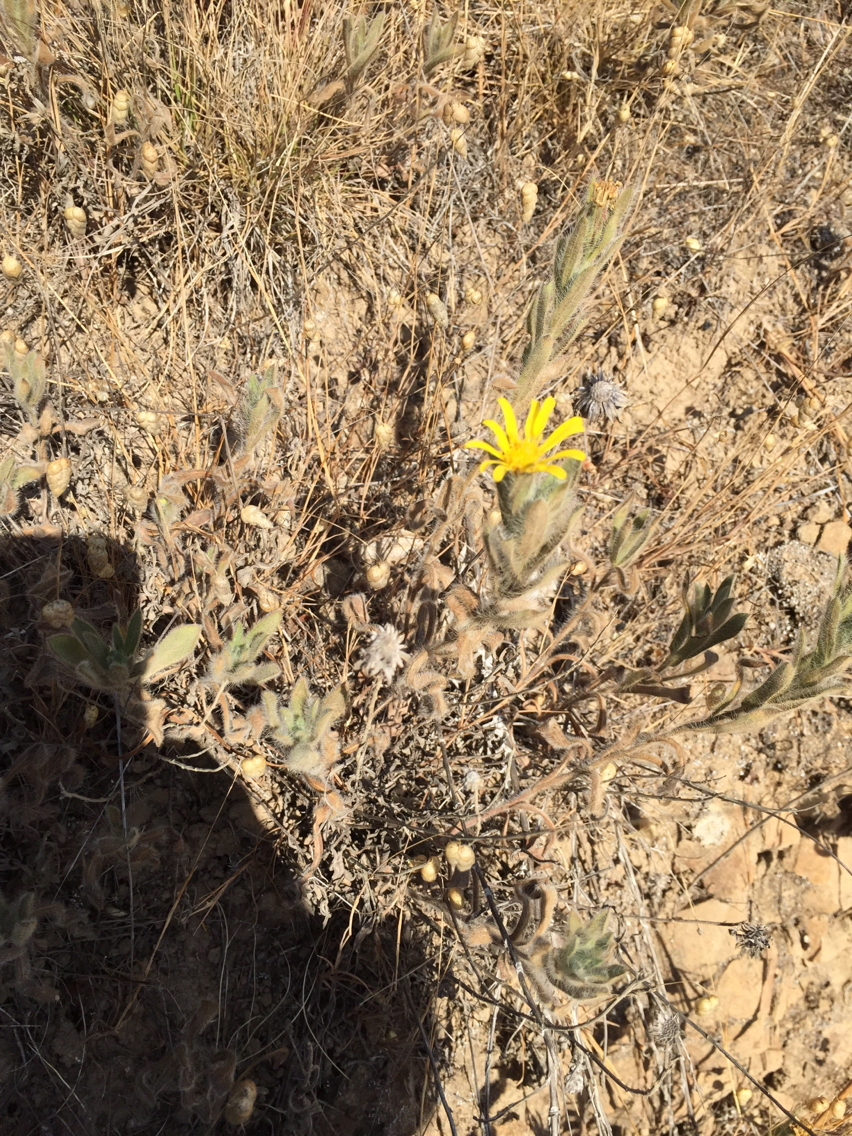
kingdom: Plantae
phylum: Tracheophyta
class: Magnoliopsida
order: Asterales
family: Asteraceae
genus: Heterotheca
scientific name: Heterotheca bolanderi
